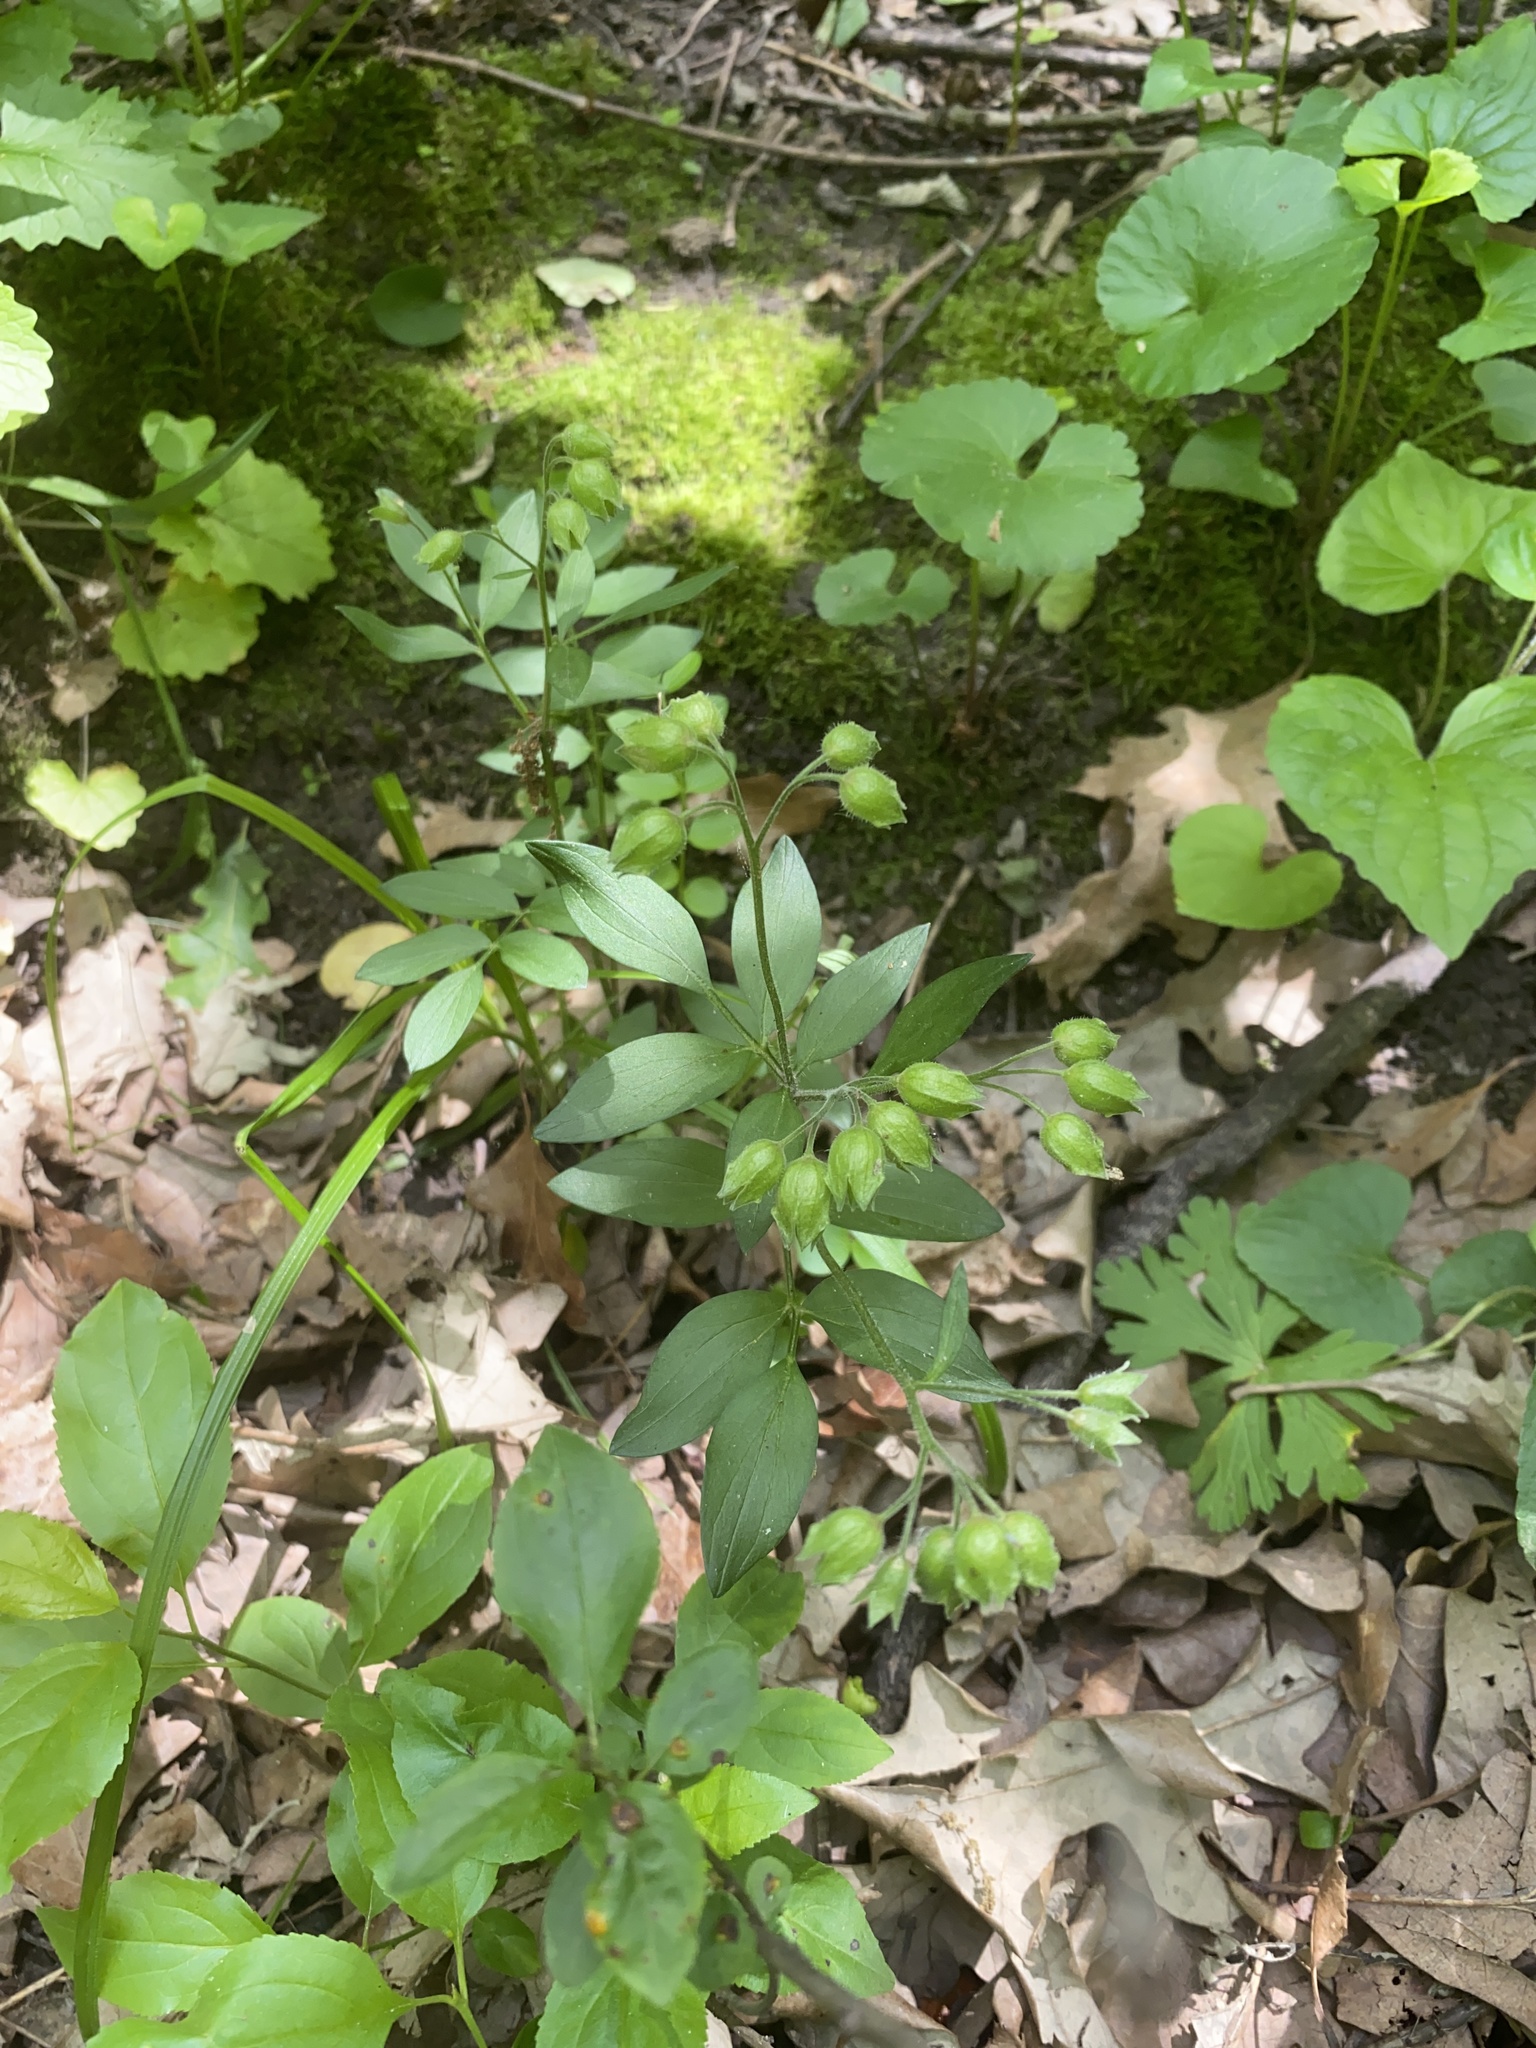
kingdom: Plantae
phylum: Tracheophyta
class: Magnoliopsida
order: Ericales
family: Polemoniaceae
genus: Polemonium
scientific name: Polemonium reptans
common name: Creeping jacob's-ladder
